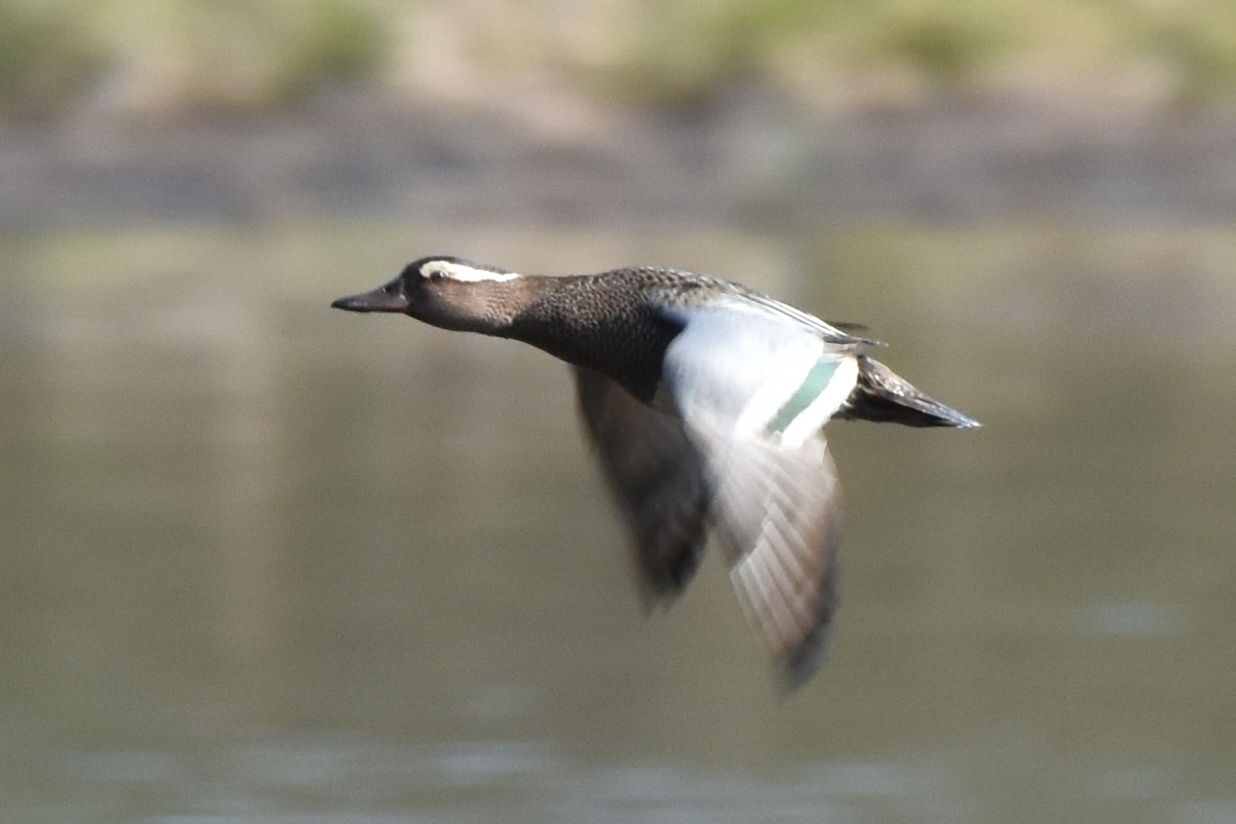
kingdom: Animalia
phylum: Chordata
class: Aves
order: Anseriformes
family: Anatidae
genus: Spatula
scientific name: Spatula querquedula
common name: Garganey
